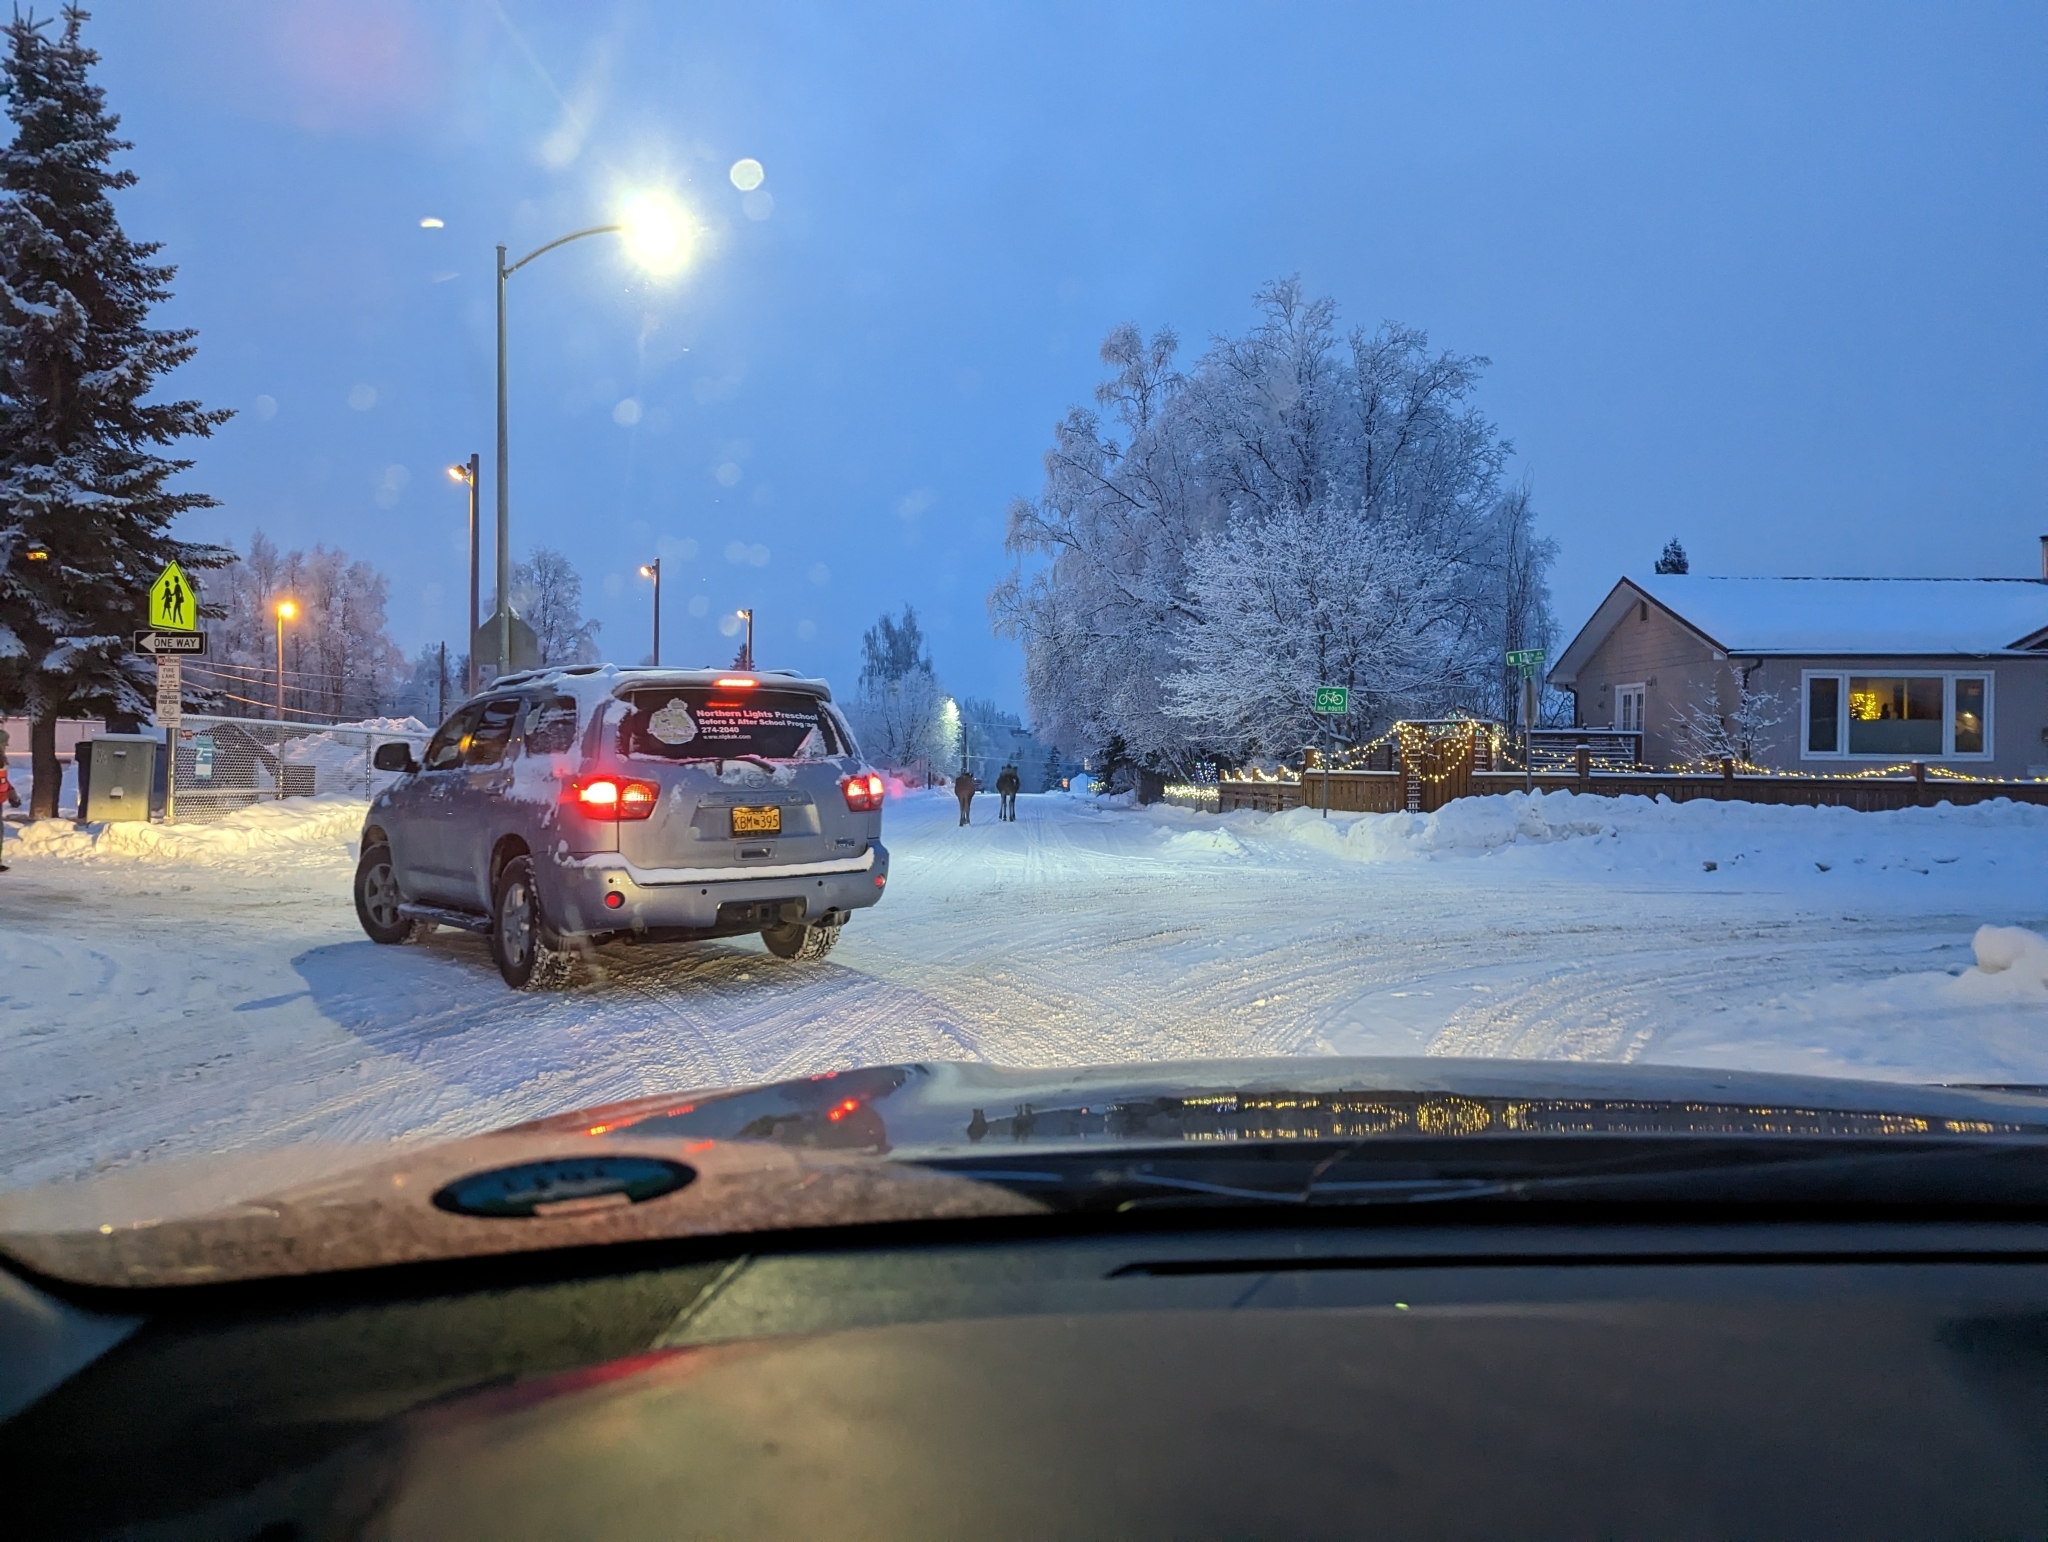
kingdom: Animalia
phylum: Chordata
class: Mammalia
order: Artiodactyla
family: Cervidae
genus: Alces
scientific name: Alces alces
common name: Moose
